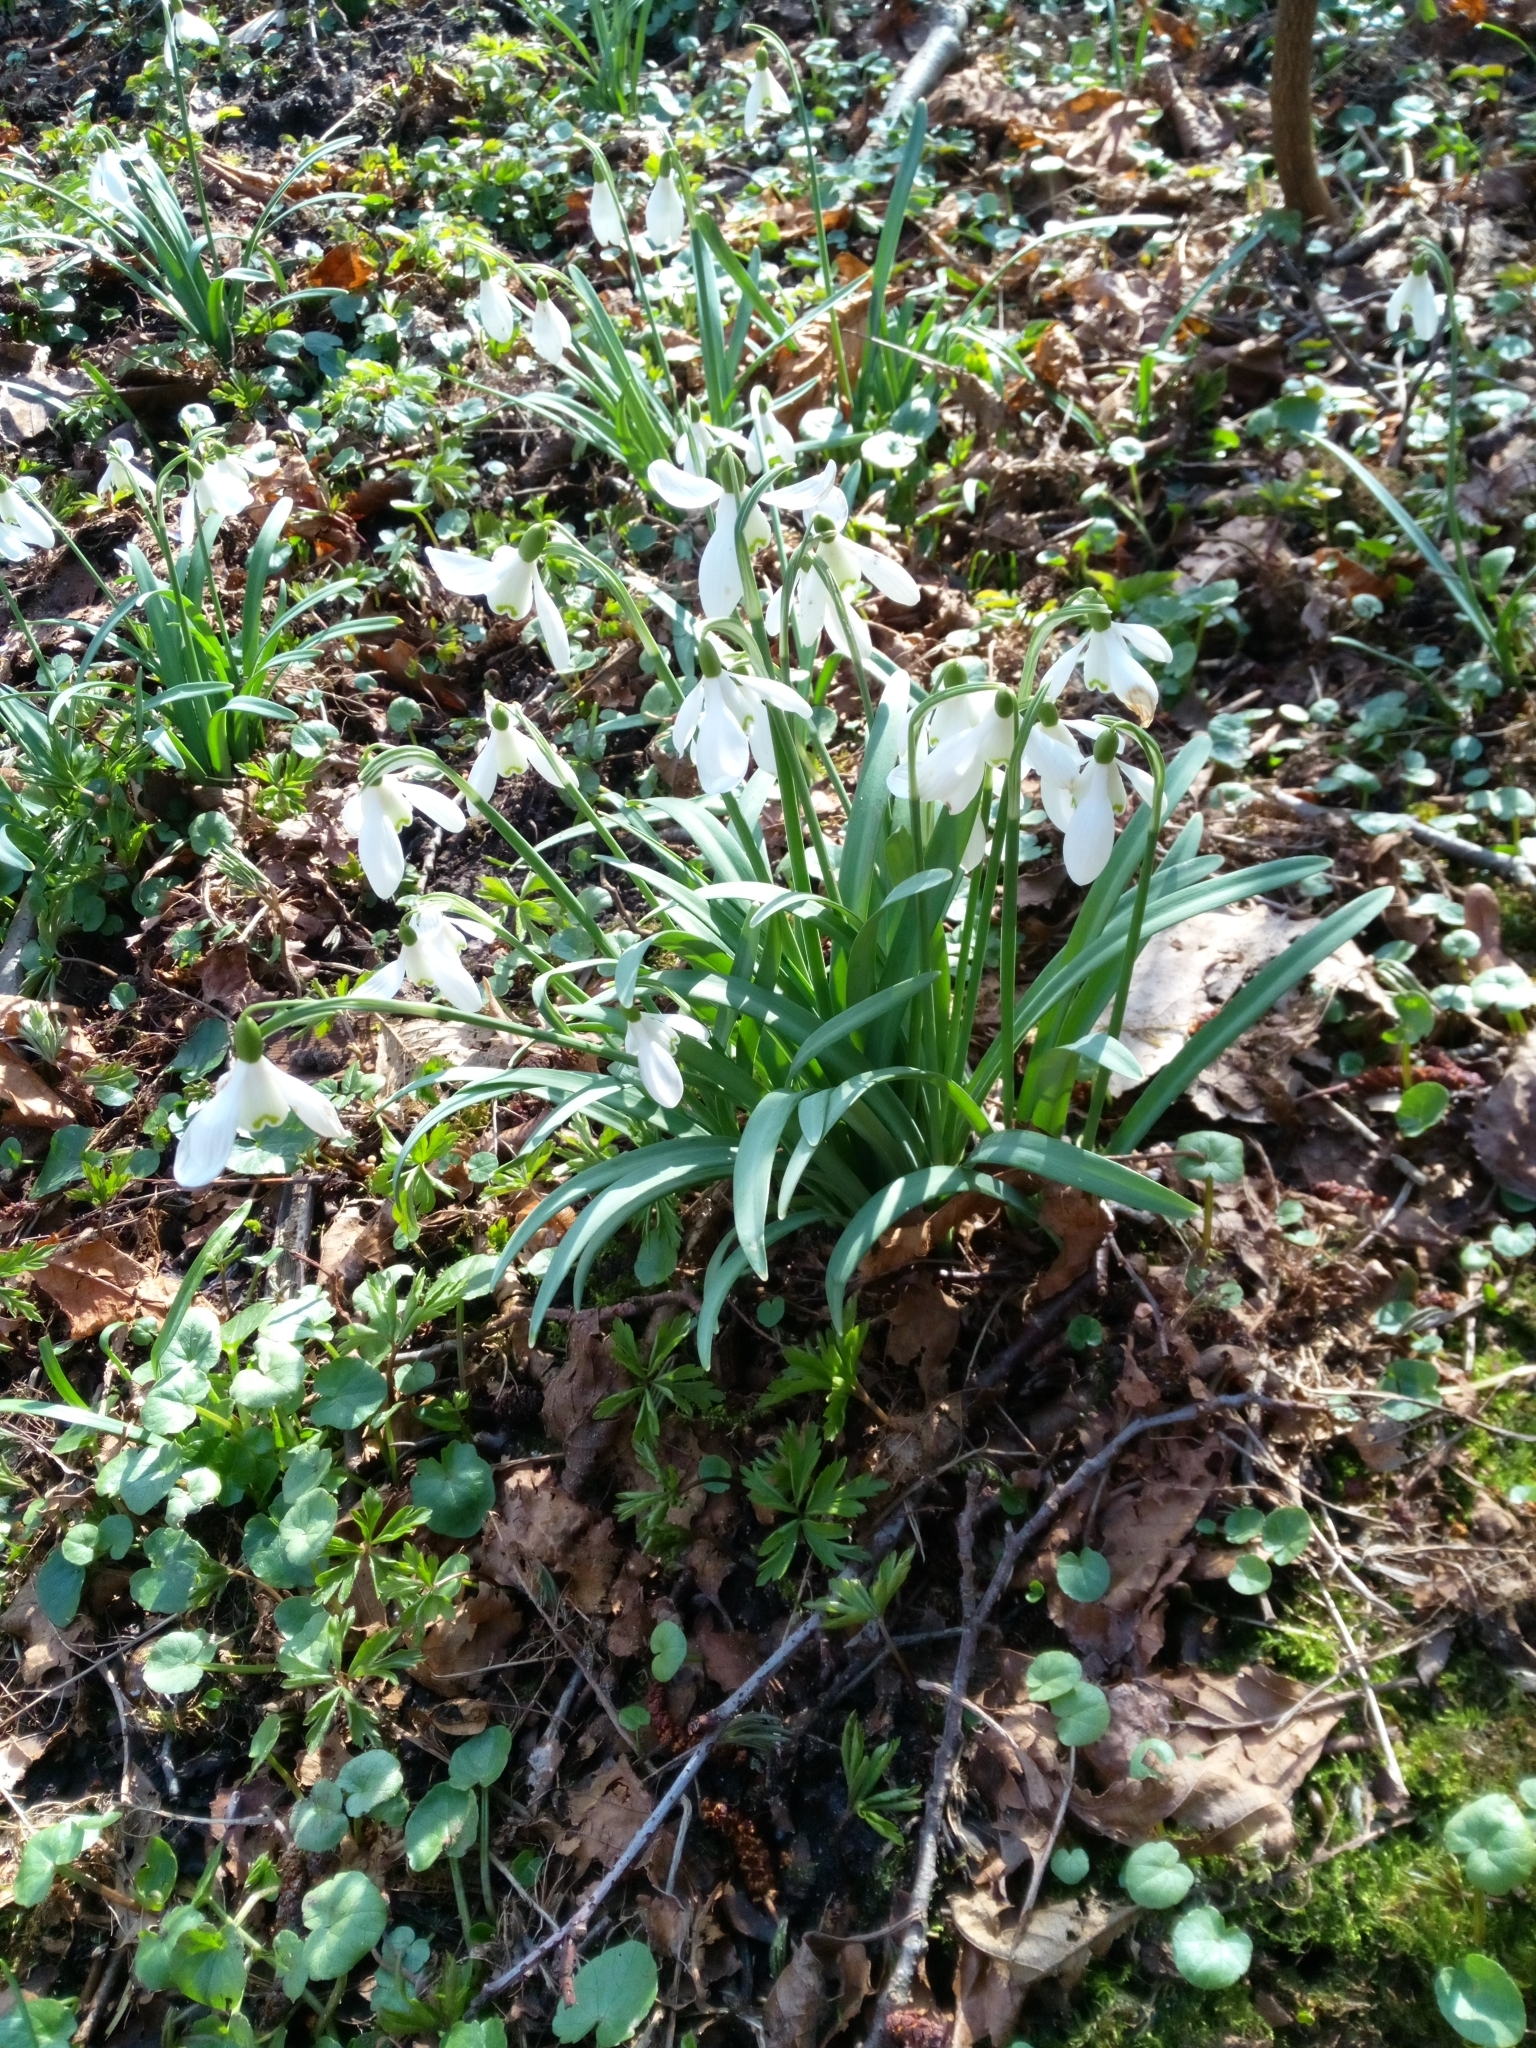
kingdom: Plantae
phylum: Tracheophyta
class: Liliopsida
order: Asparagales
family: Amaryllidaceae
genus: Galanthus
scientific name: Galanthus nivalis
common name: Snowdrop
